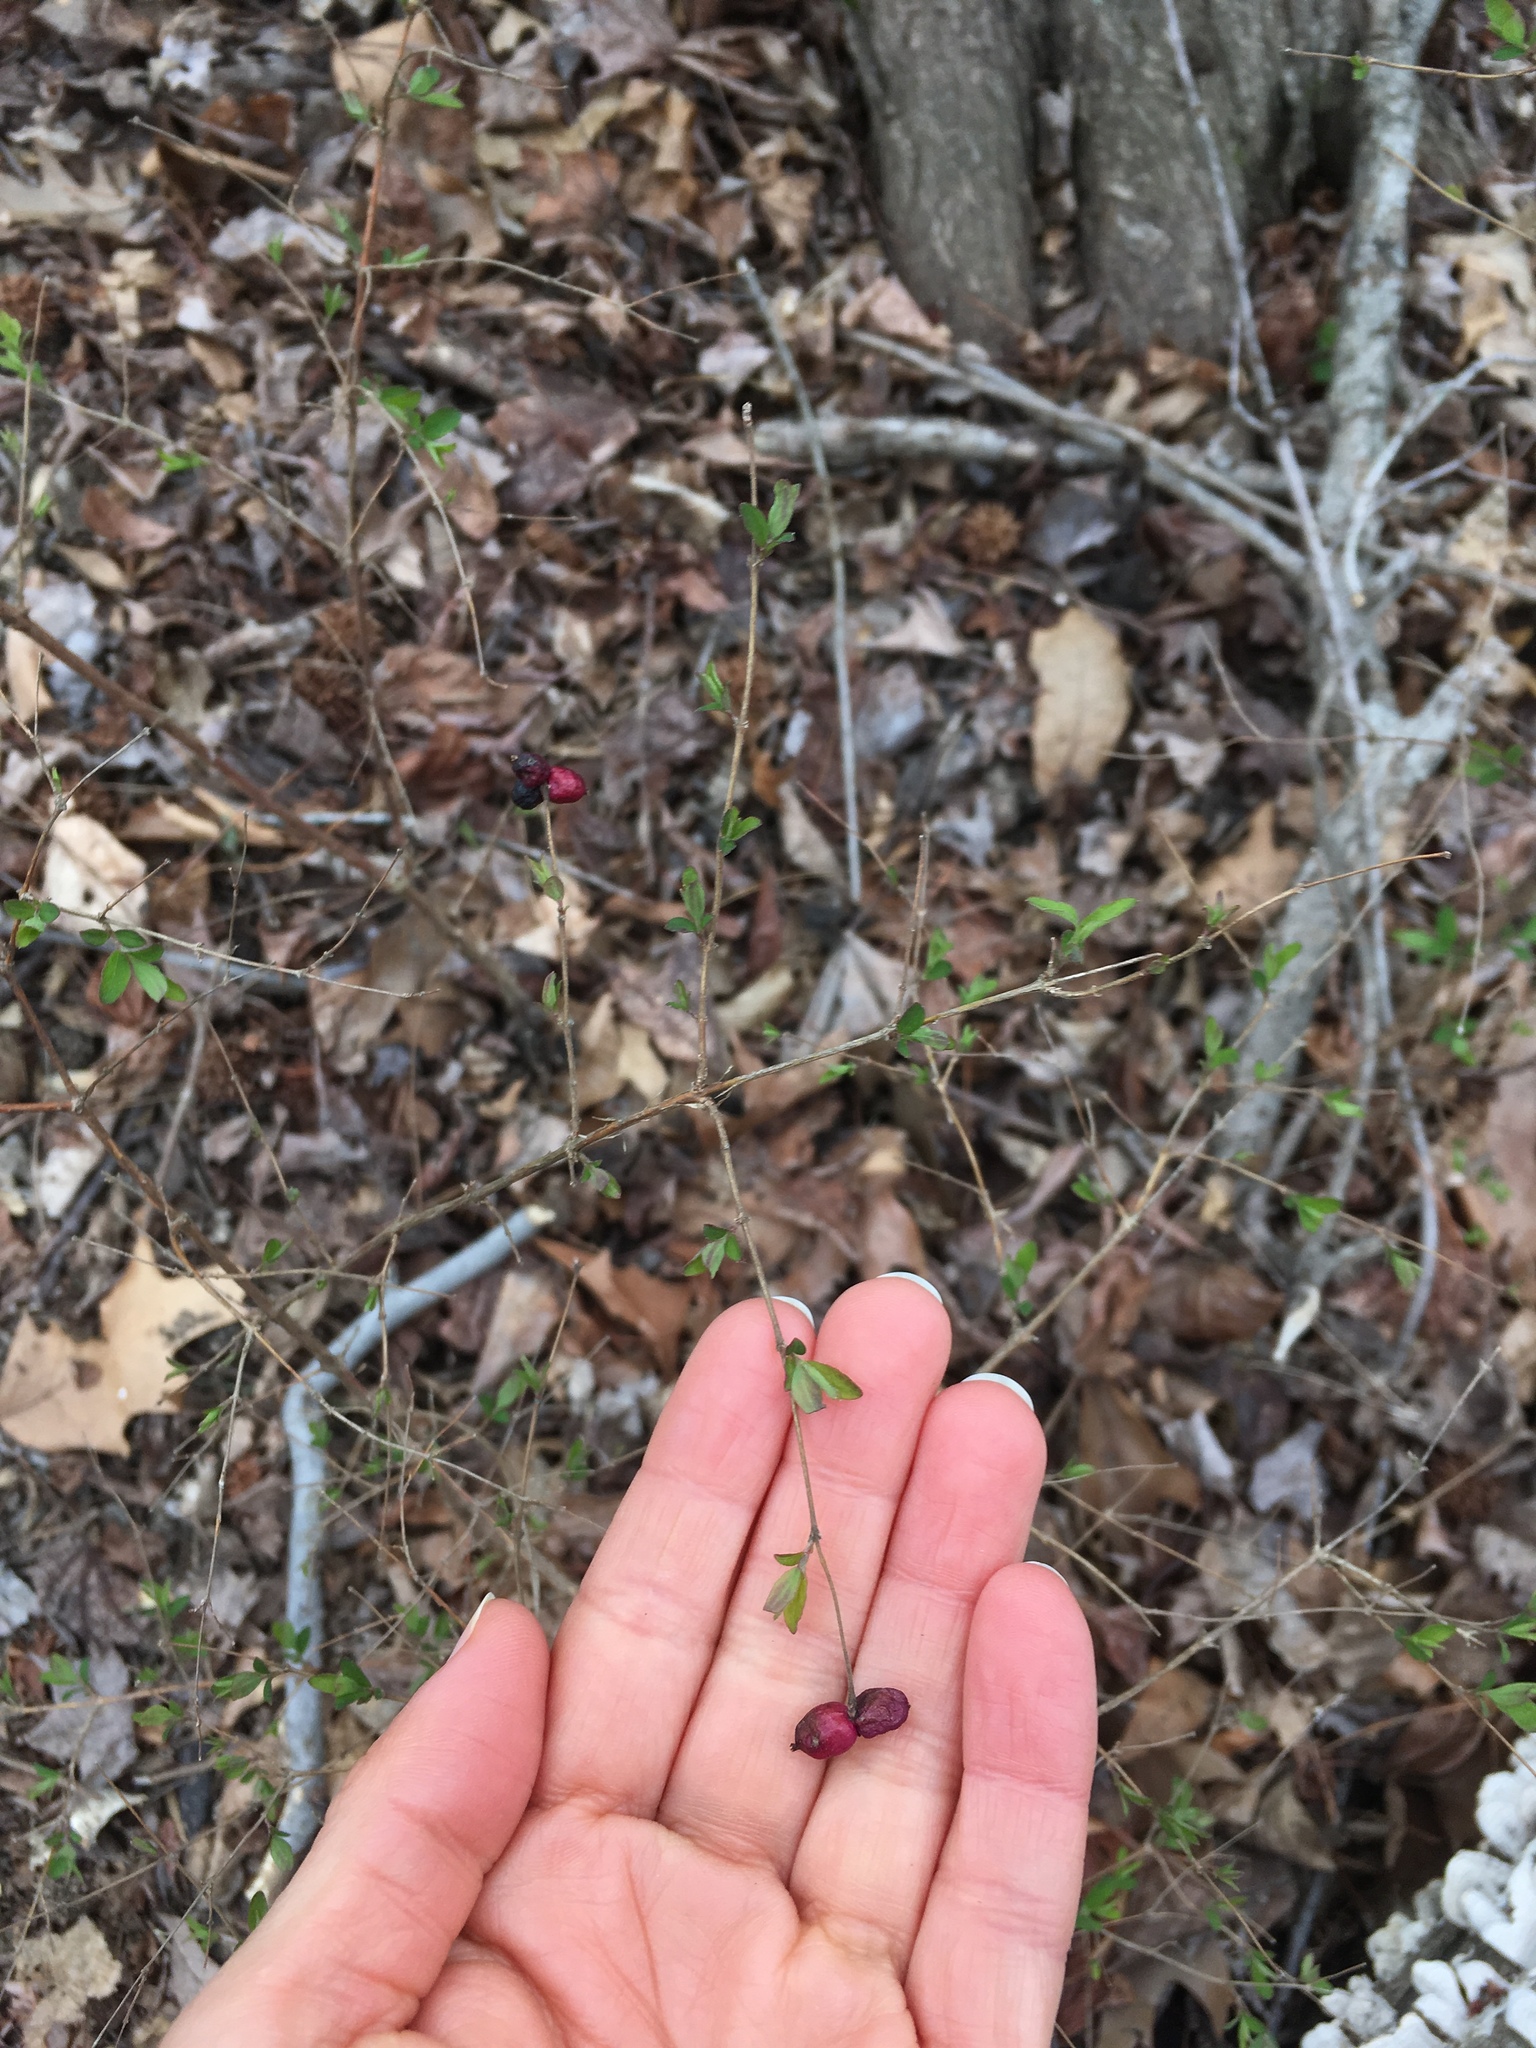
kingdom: Plantae
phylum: Tracheophyta
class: Magnoliopsida
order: Dipsacales
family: Caprifoliaceae
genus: Symphoricarpos
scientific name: Symphoricarpos orbiculatus
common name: Coralberry
